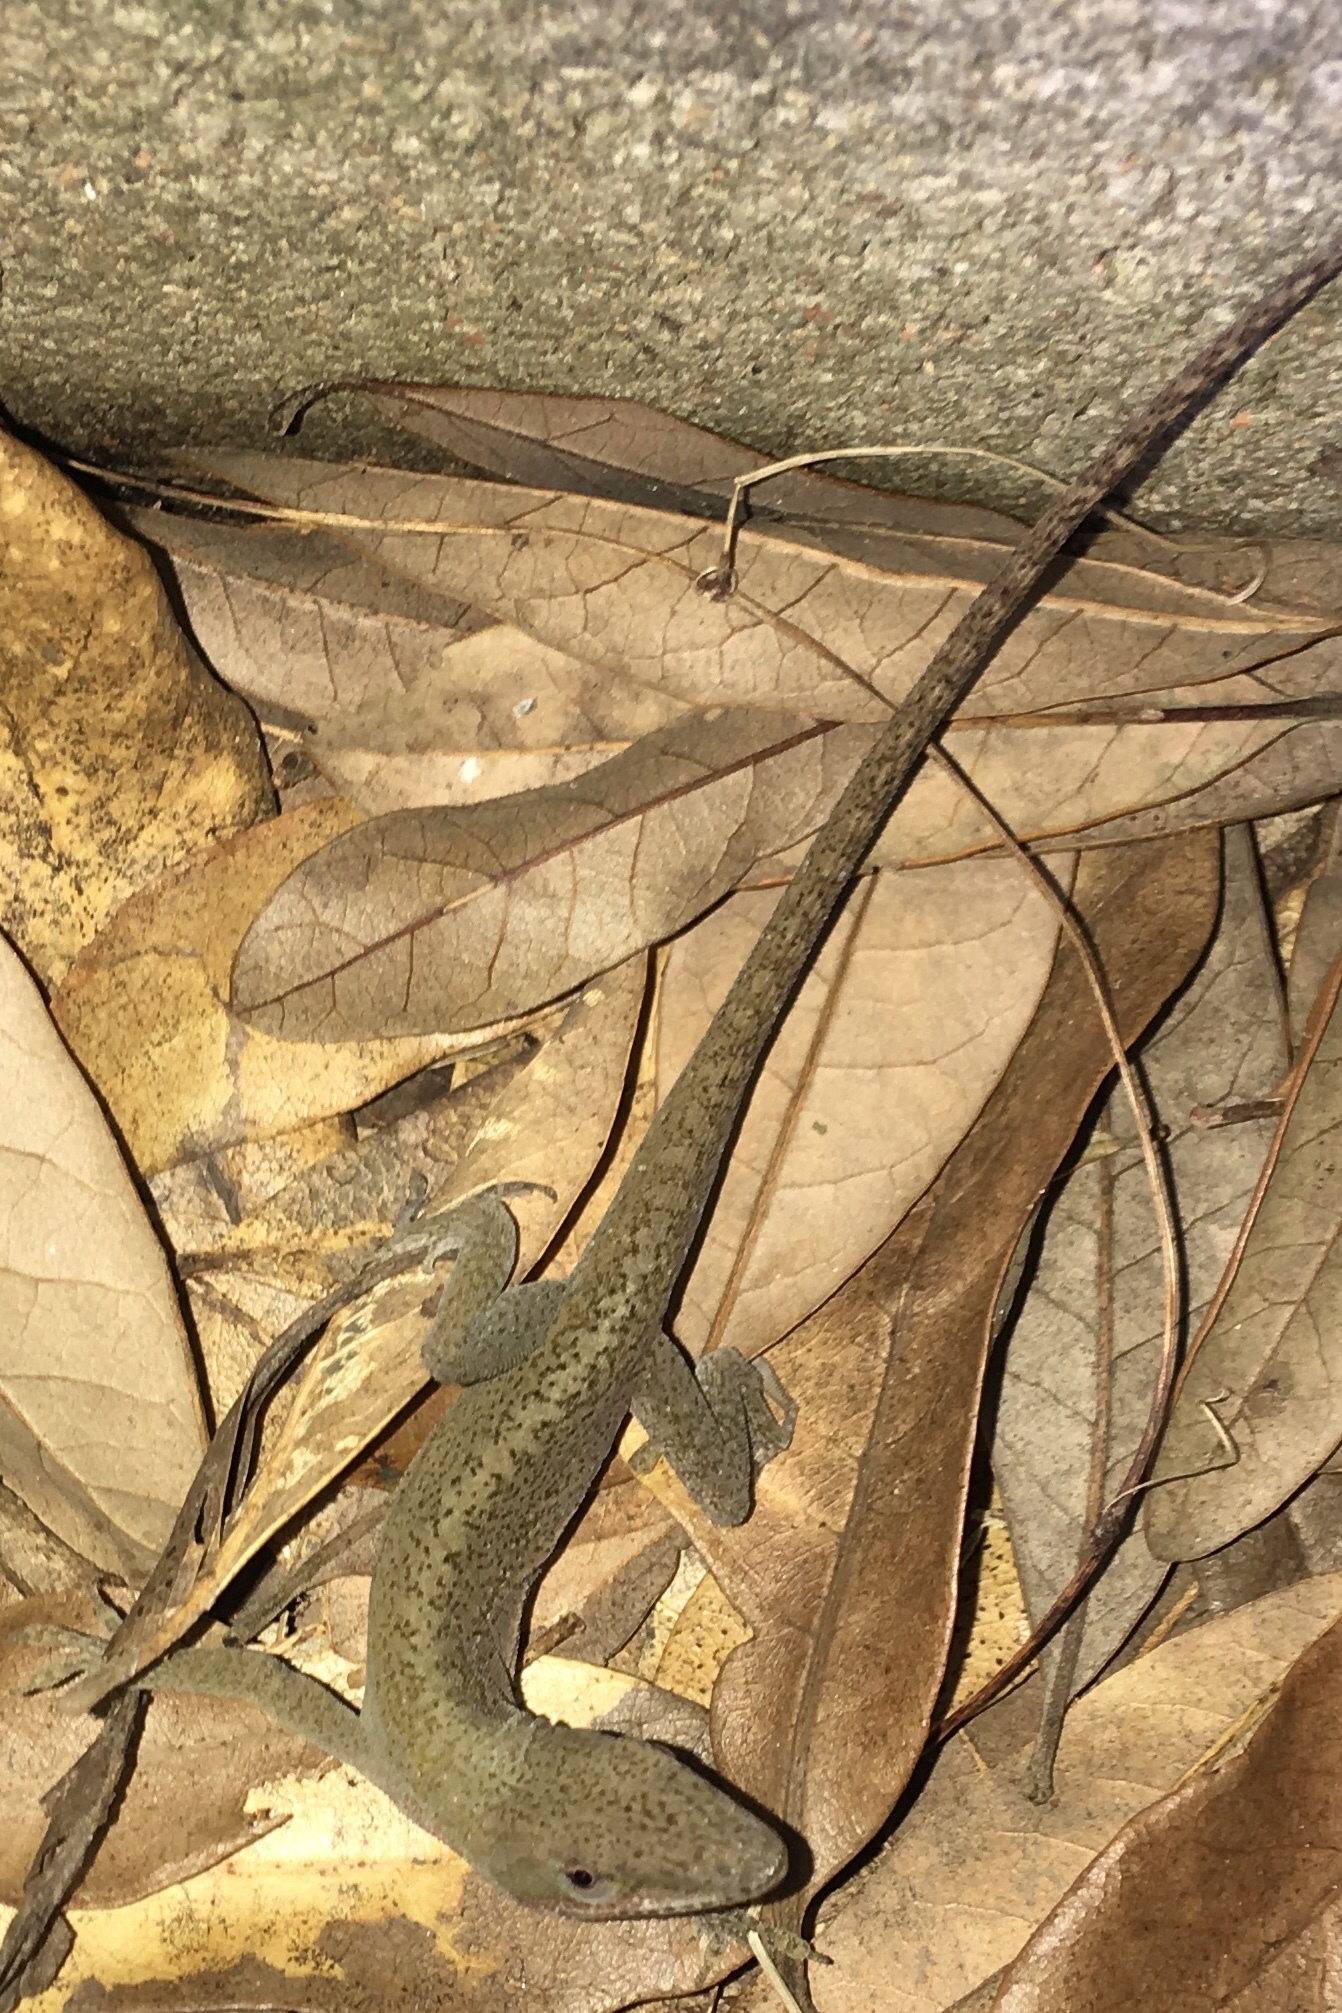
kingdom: Animalia
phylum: Chordata
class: Squamata
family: Dactyloidae
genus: Anolis
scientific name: Anolis carolinensis
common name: Green anole
